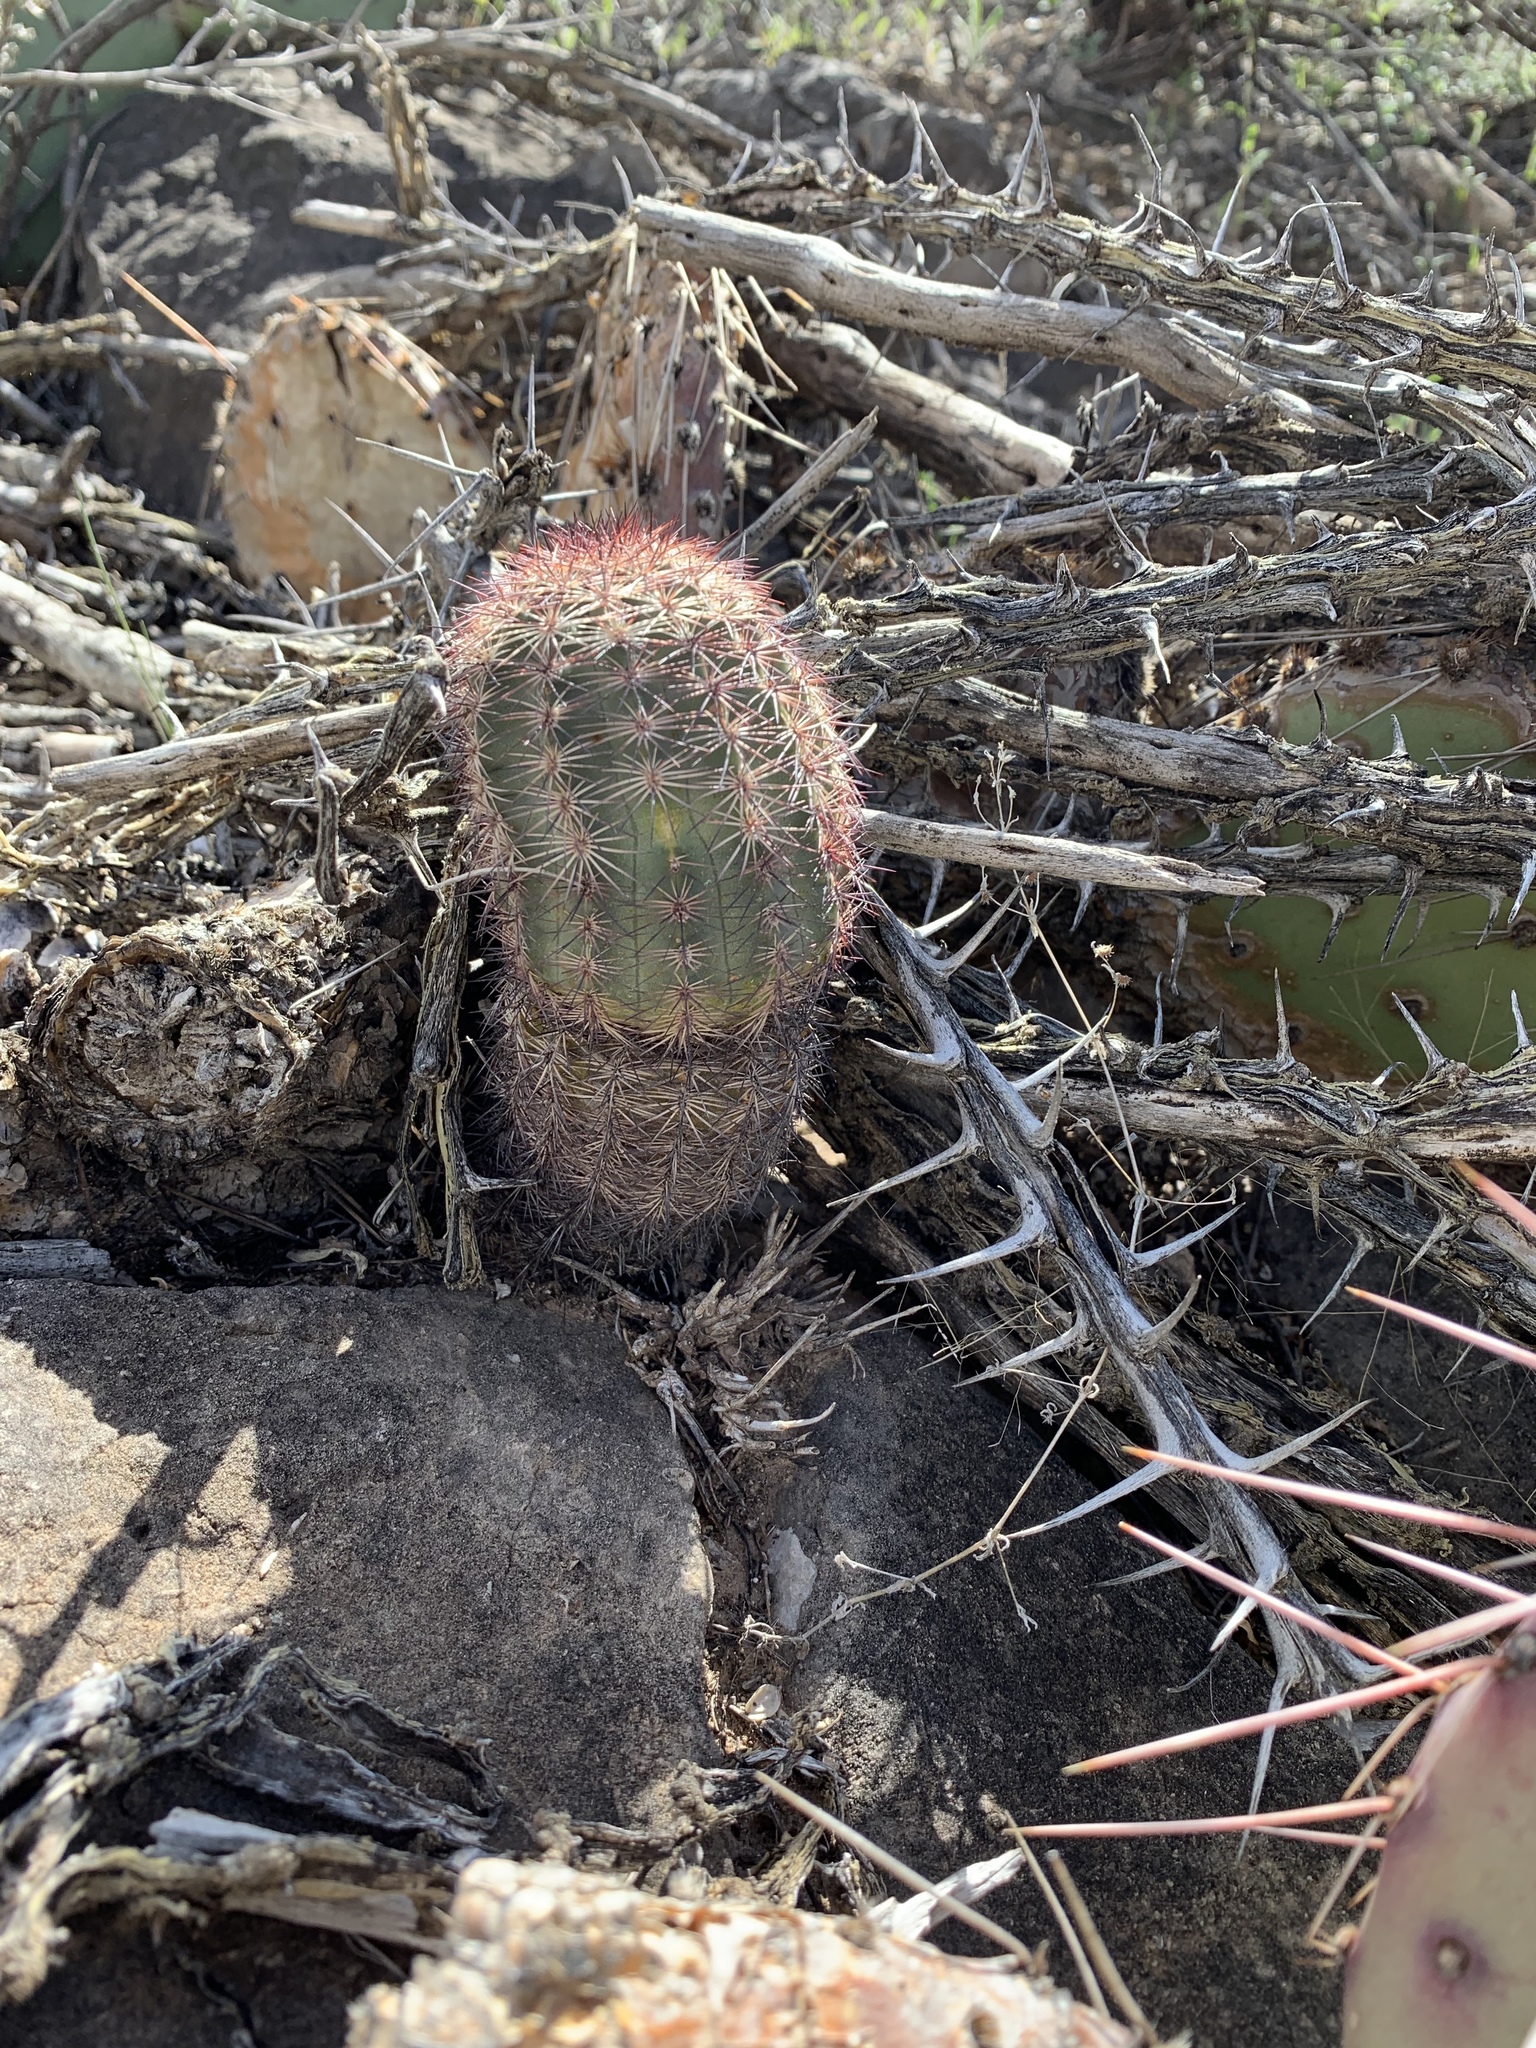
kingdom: Plantae
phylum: Tracheophyta
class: Magnoliopsida
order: Caryophyllales
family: Cactaceae
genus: Echinocereus
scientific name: Echinocereus dasyacanthus
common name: Spiny hedgehog cactus
